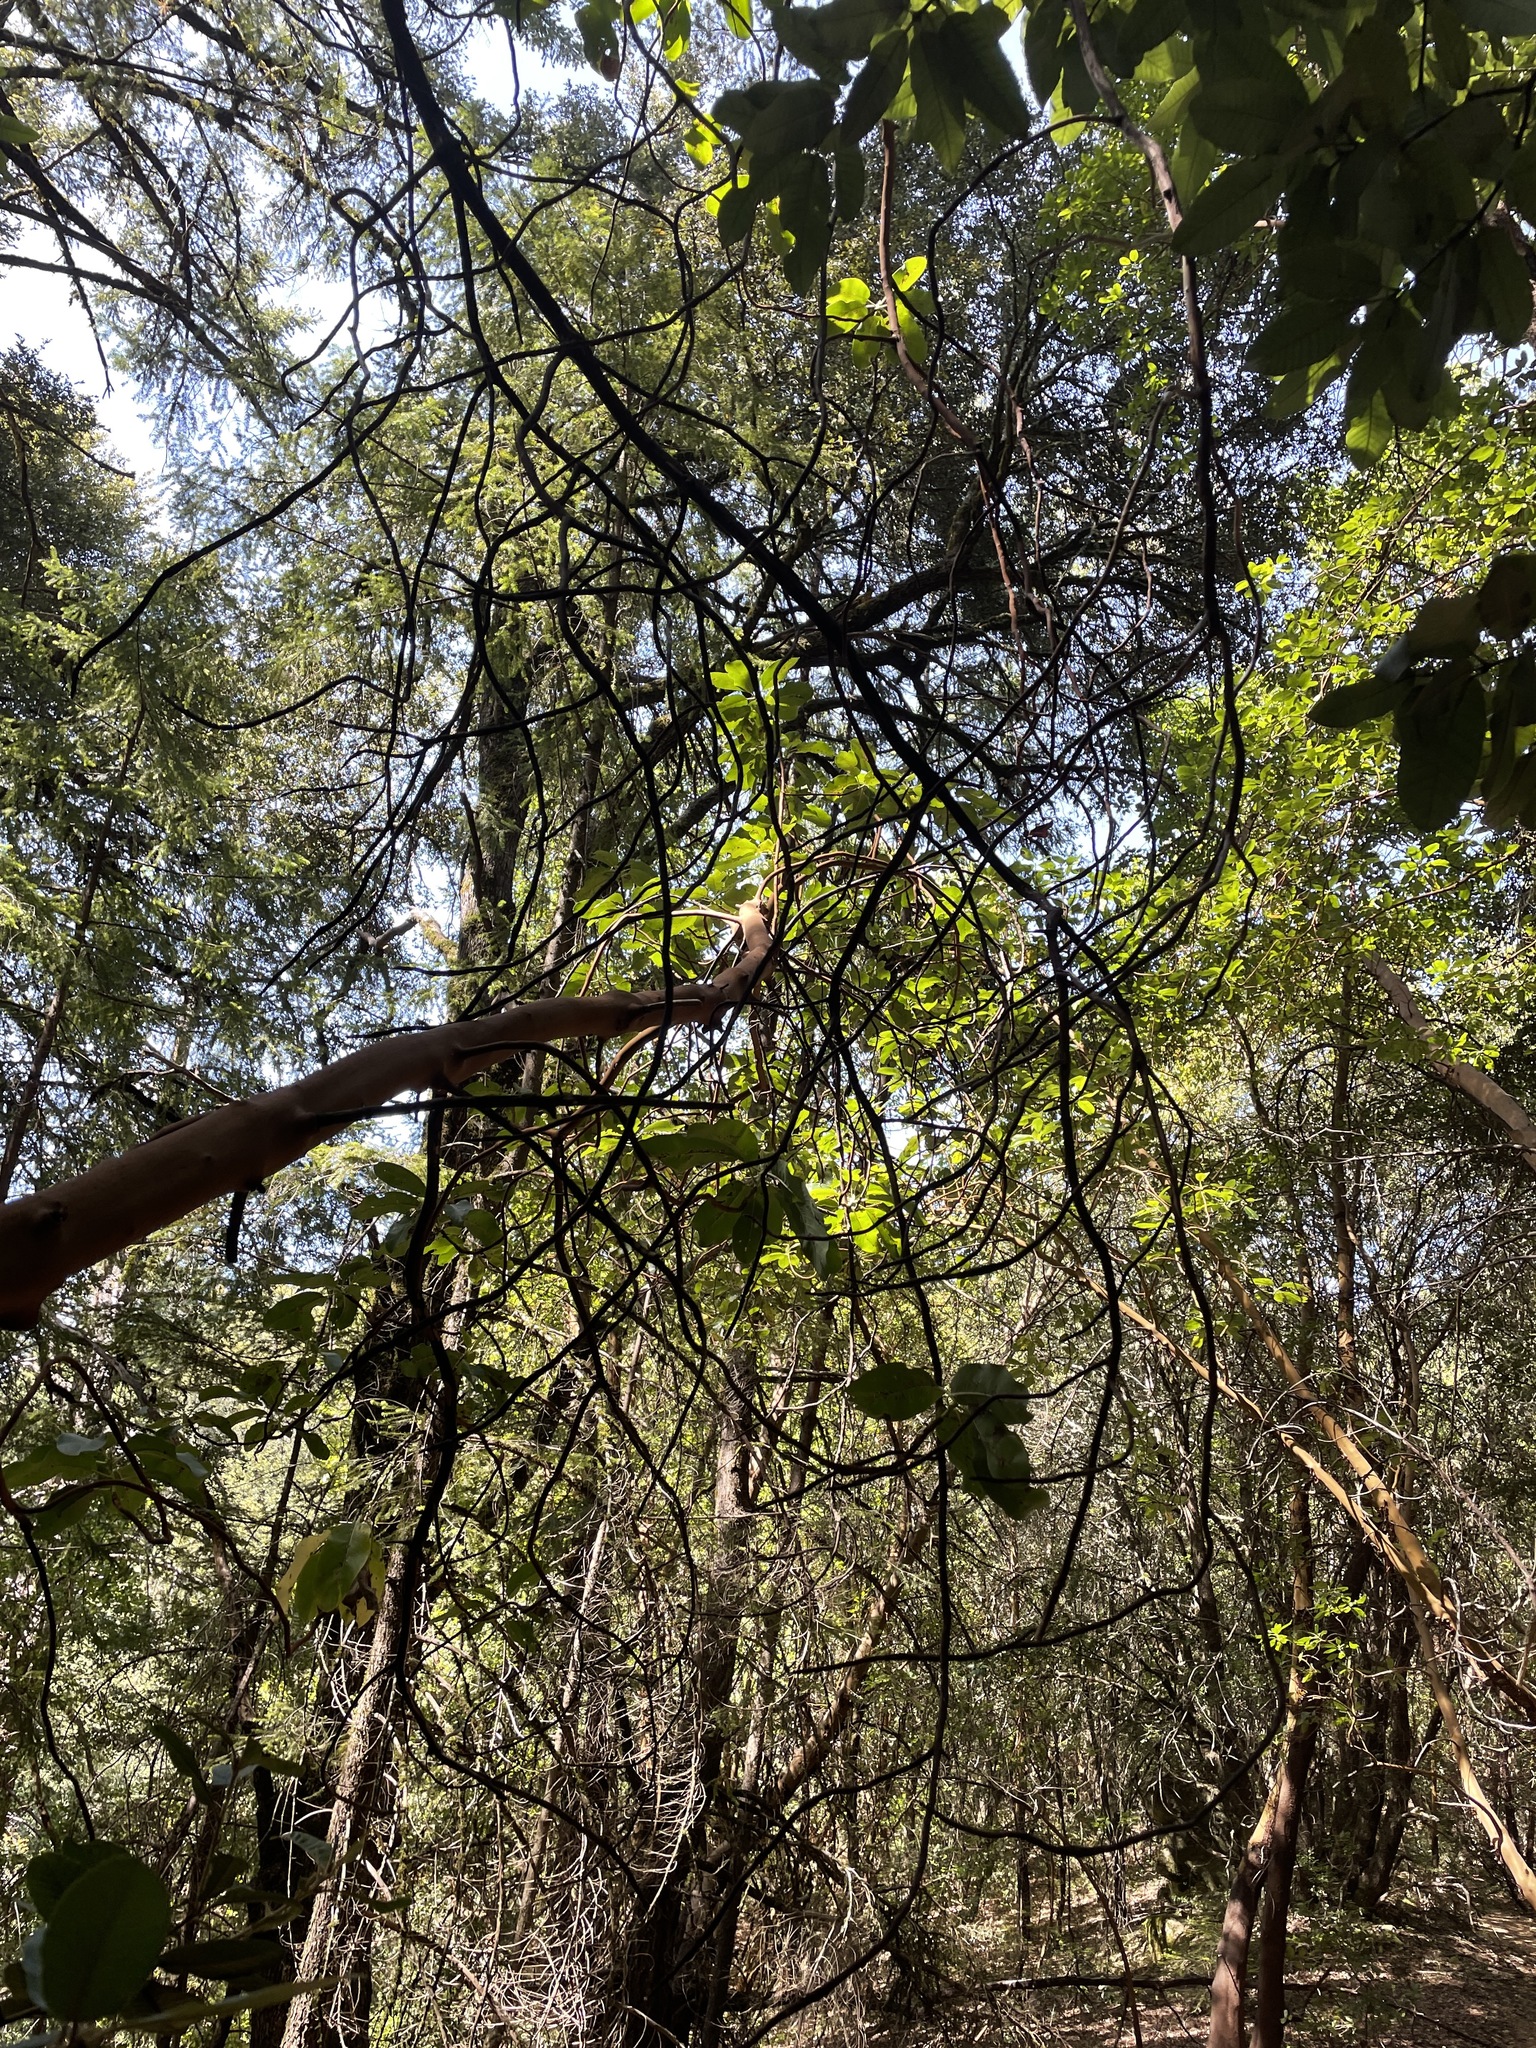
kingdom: Plantae
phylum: Tracheophyta
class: Magnoliopsida
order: Ericales
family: Ericaceae
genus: Arbutus
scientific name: Arbutus menziesii
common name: Pacific madrone
